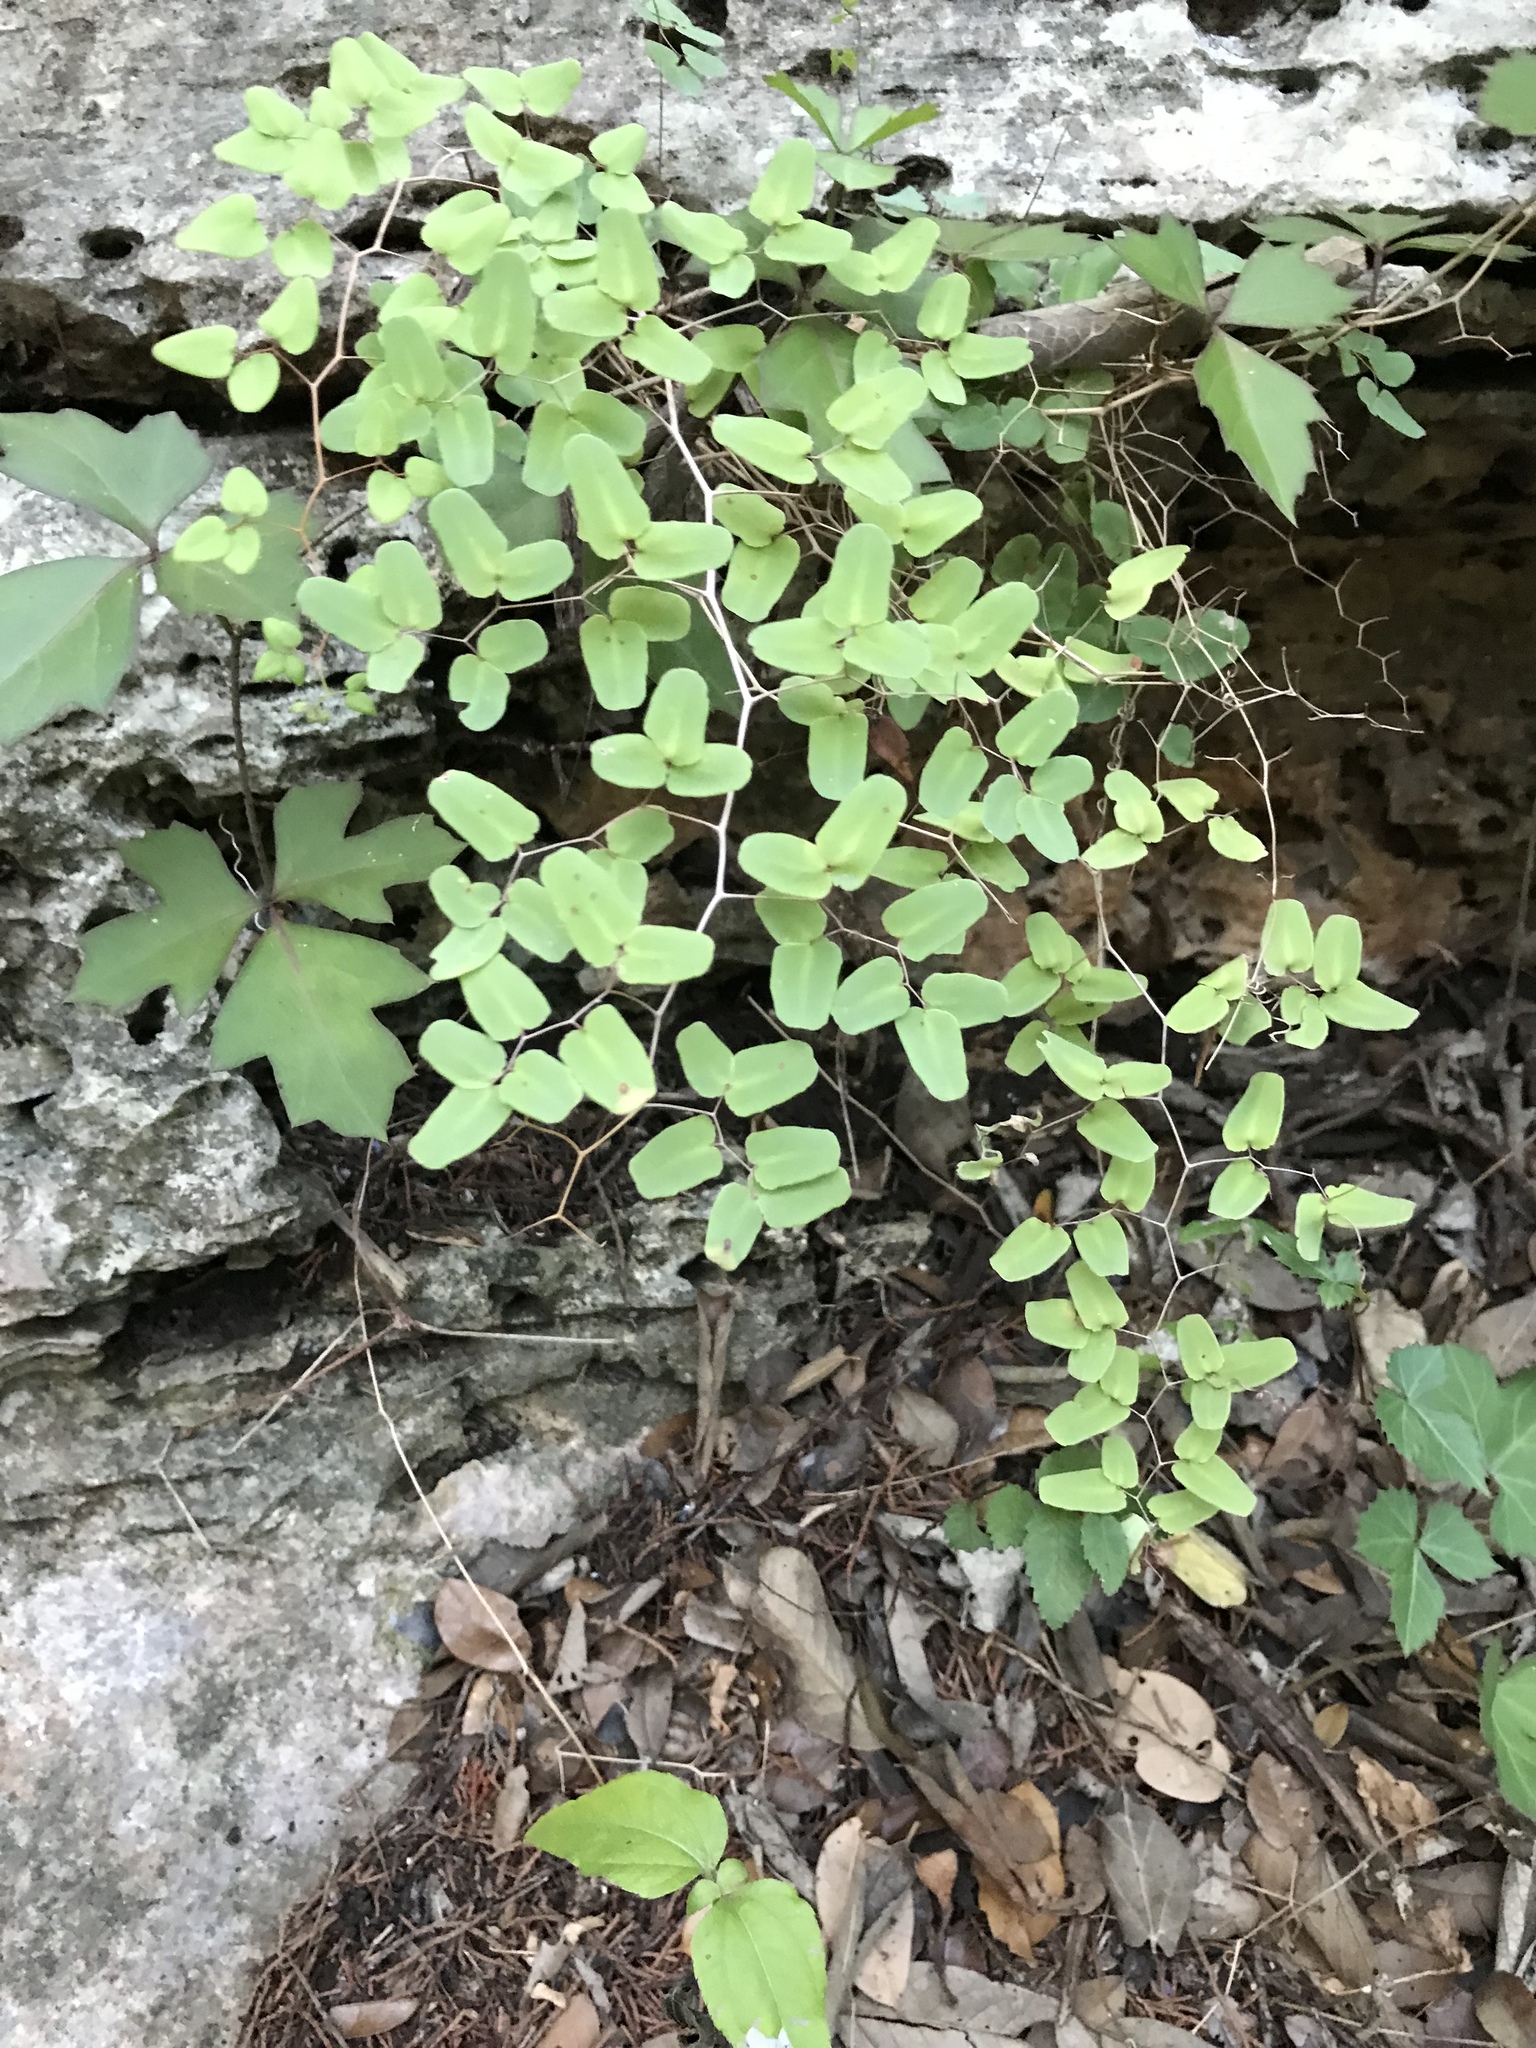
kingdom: Plantae
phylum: Tracheophyta
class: Polypodiopsida
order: Polypodiales
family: Pteridaceae
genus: Pellaea
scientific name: Pellaea ovata
